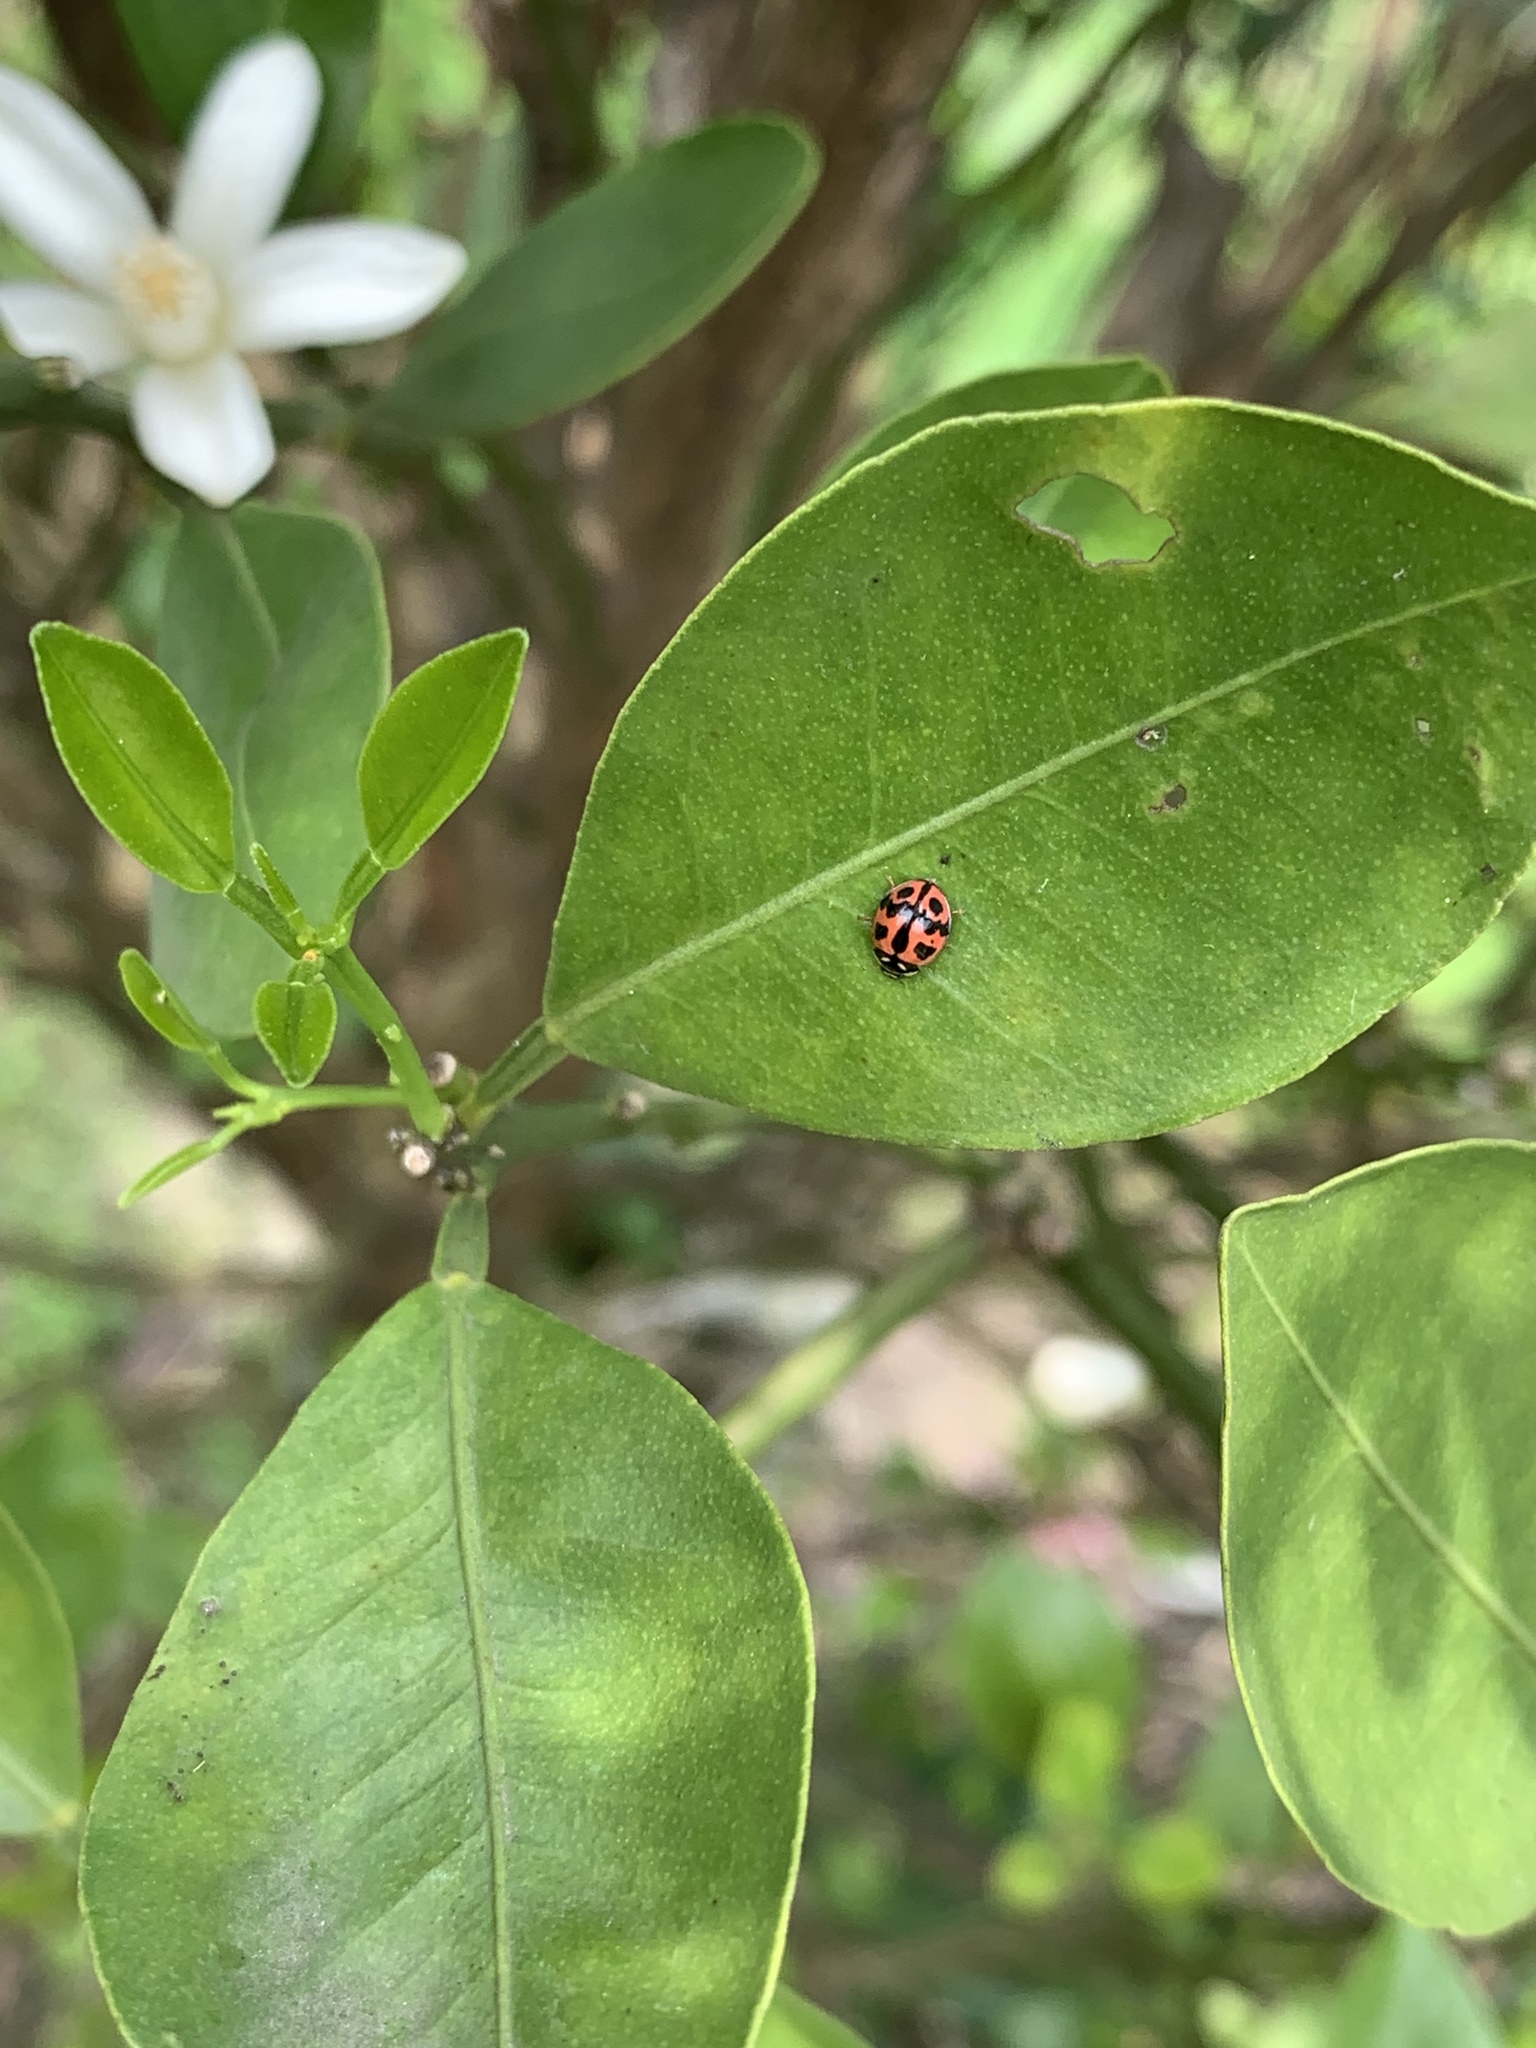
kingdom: Animalia
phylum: Arthropoda
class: Insecta
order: Coleoptera
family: Coccinellidae
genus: Cheilomenes
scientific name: Cheilomenes sexmaculata
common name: Ladybird beetle
